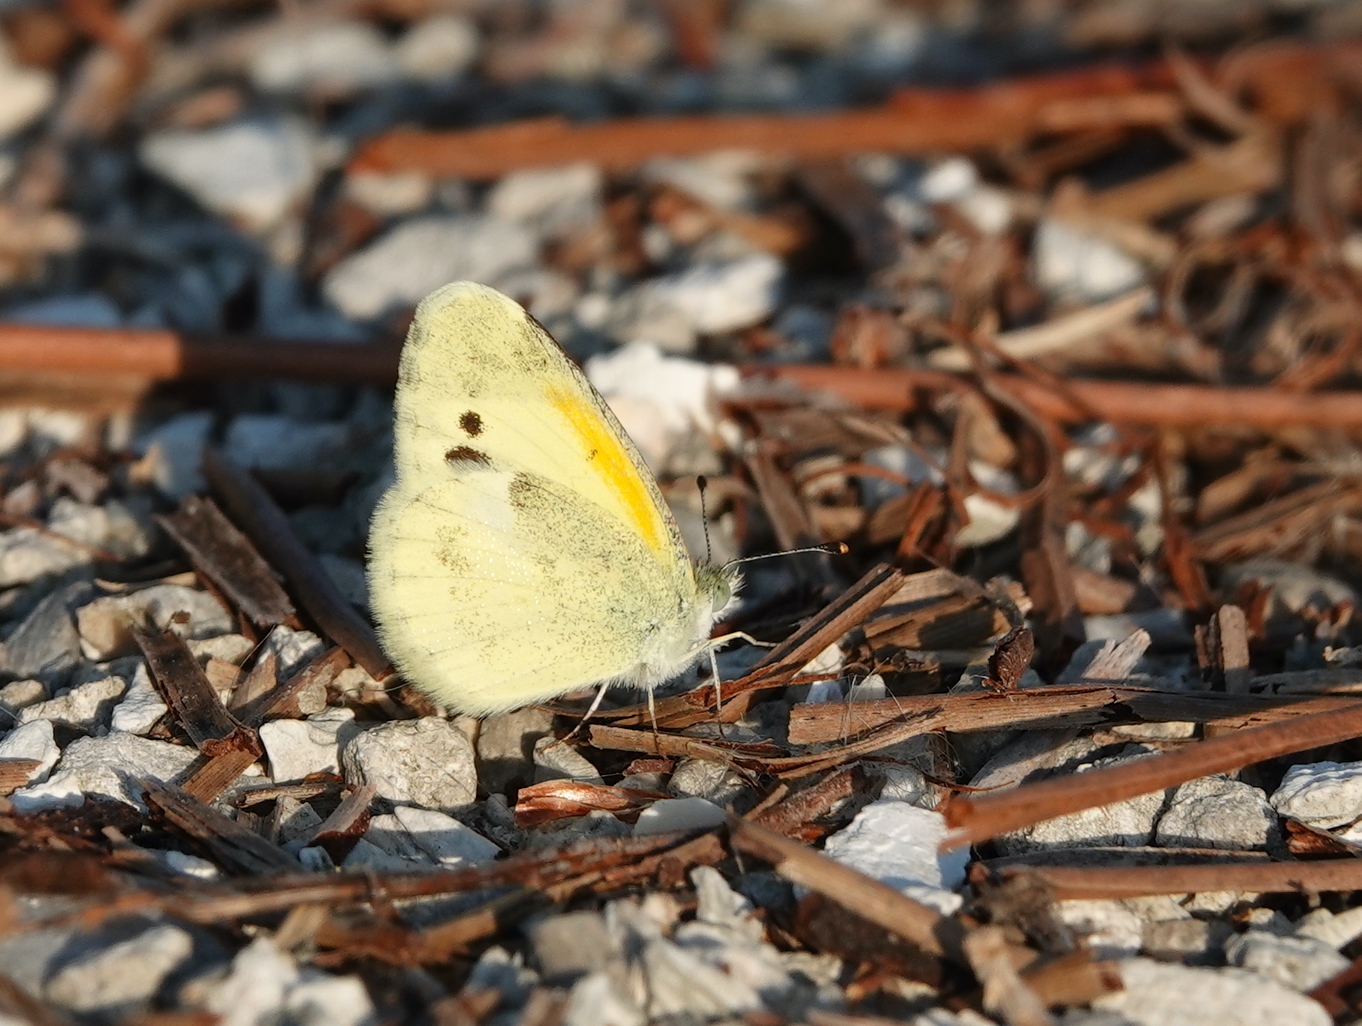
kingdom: Animalia
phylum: Arthropoda
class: Insecta
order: Lepidoptera
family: Pieridae
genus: Nathalis
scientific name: Nathalis iole
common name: Dainty sulphur
